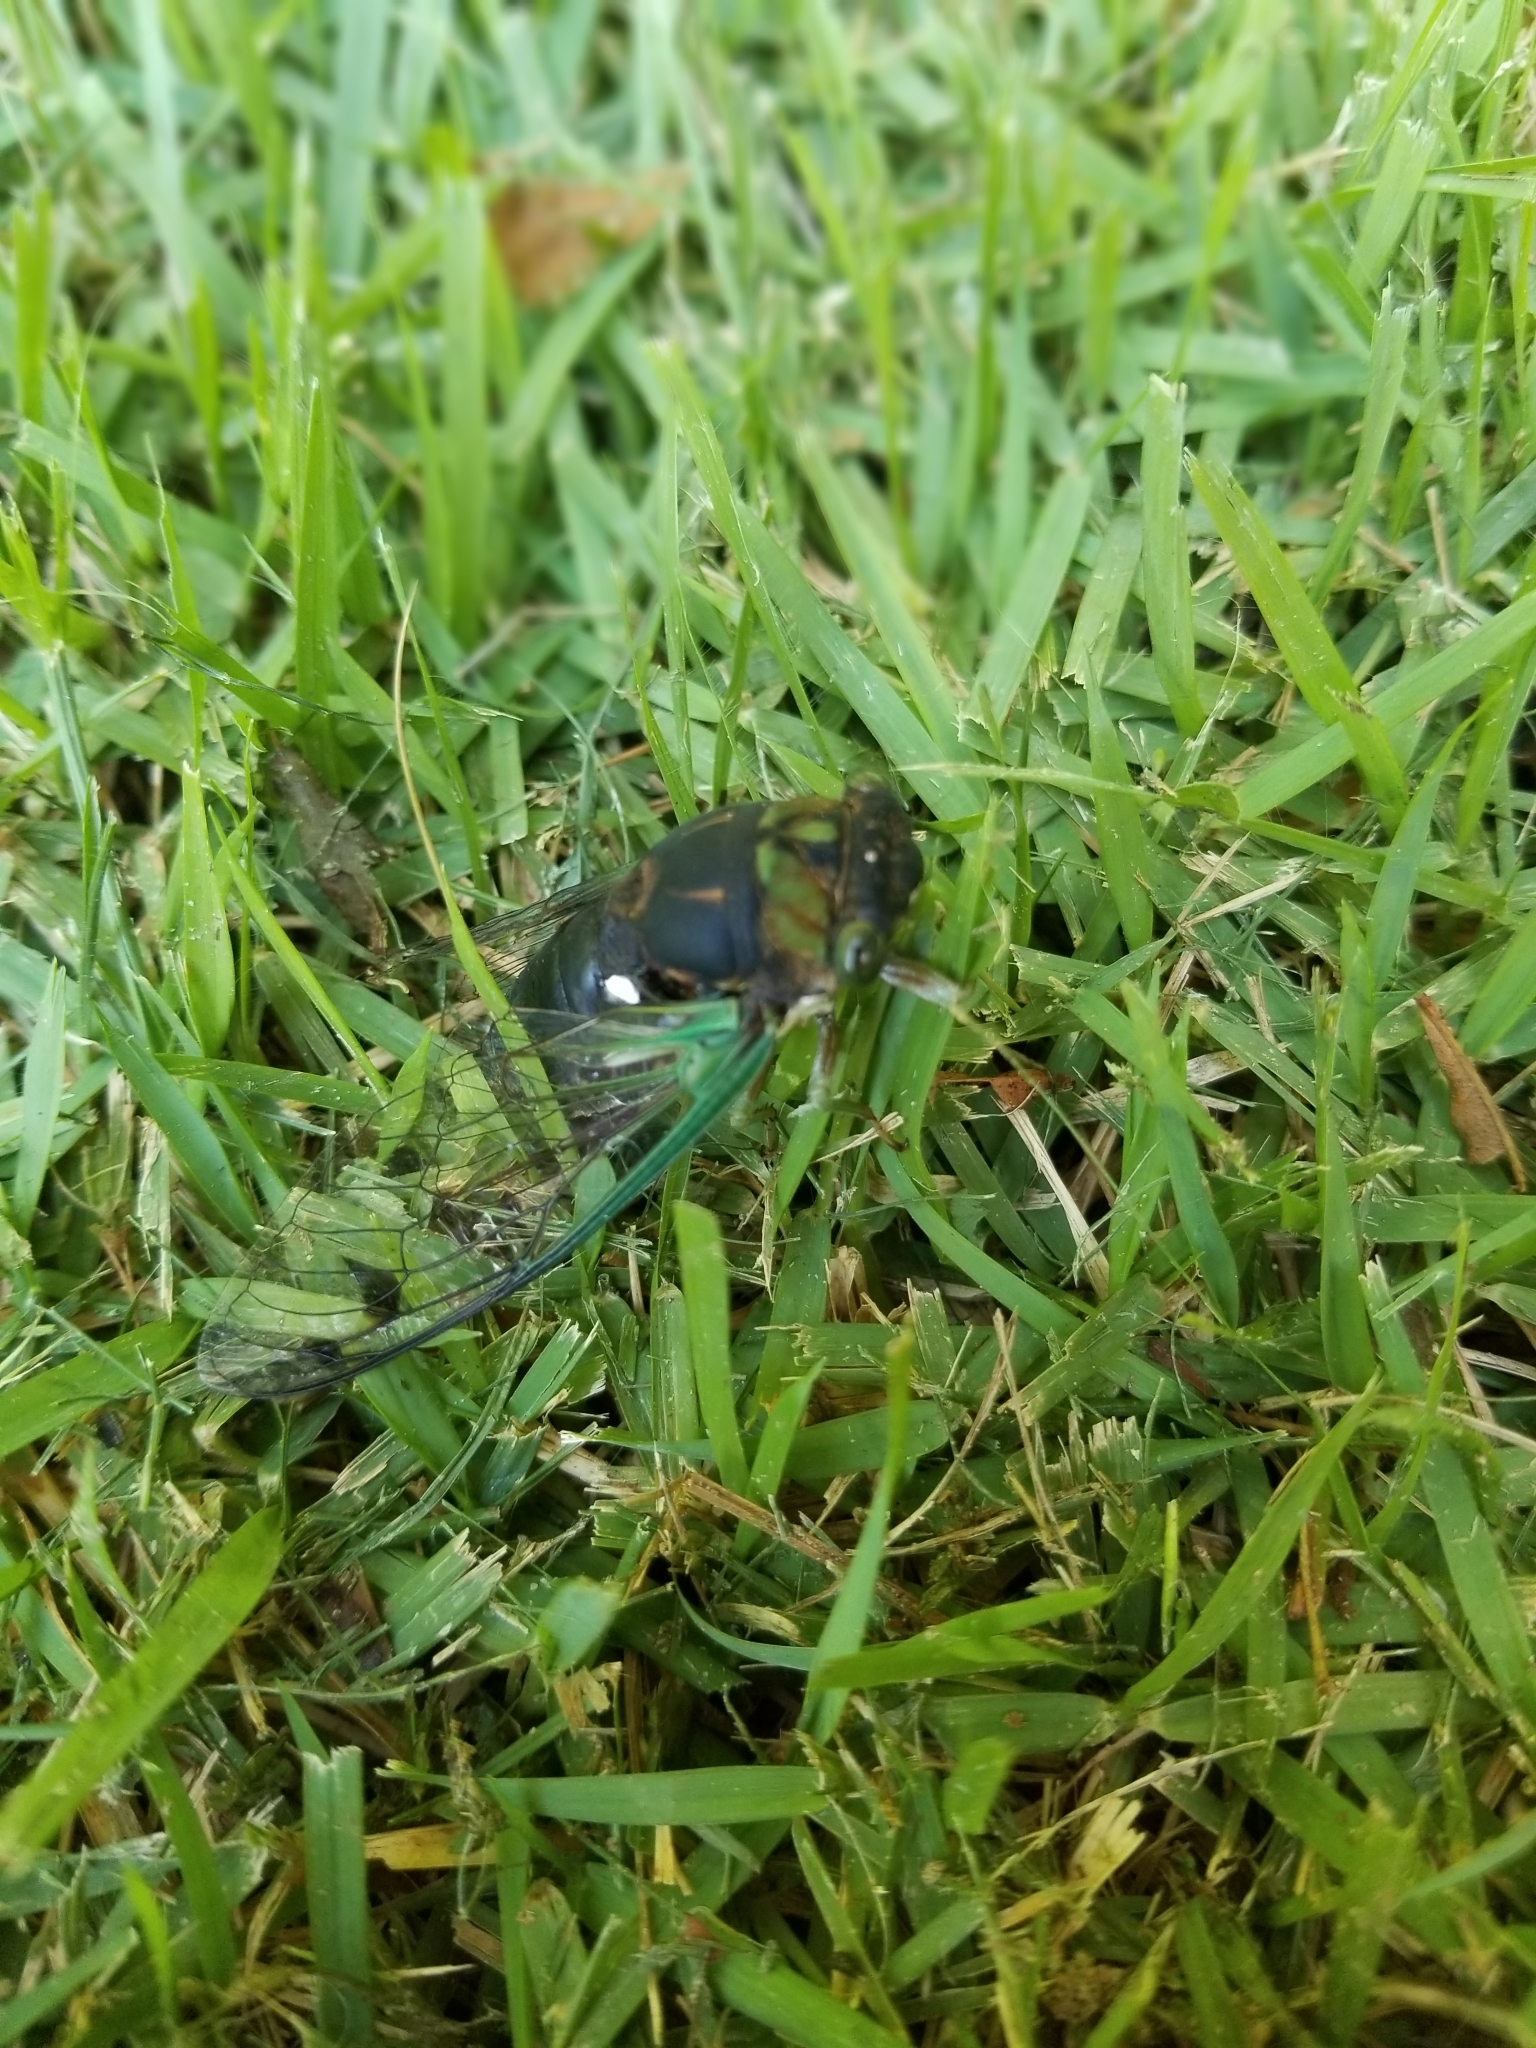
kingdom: Animalia
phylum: Arthropoda
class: Insecta
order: Hemiptera
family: Cicadidae
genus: Neotibicen
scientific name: Neotibicen tibicen
